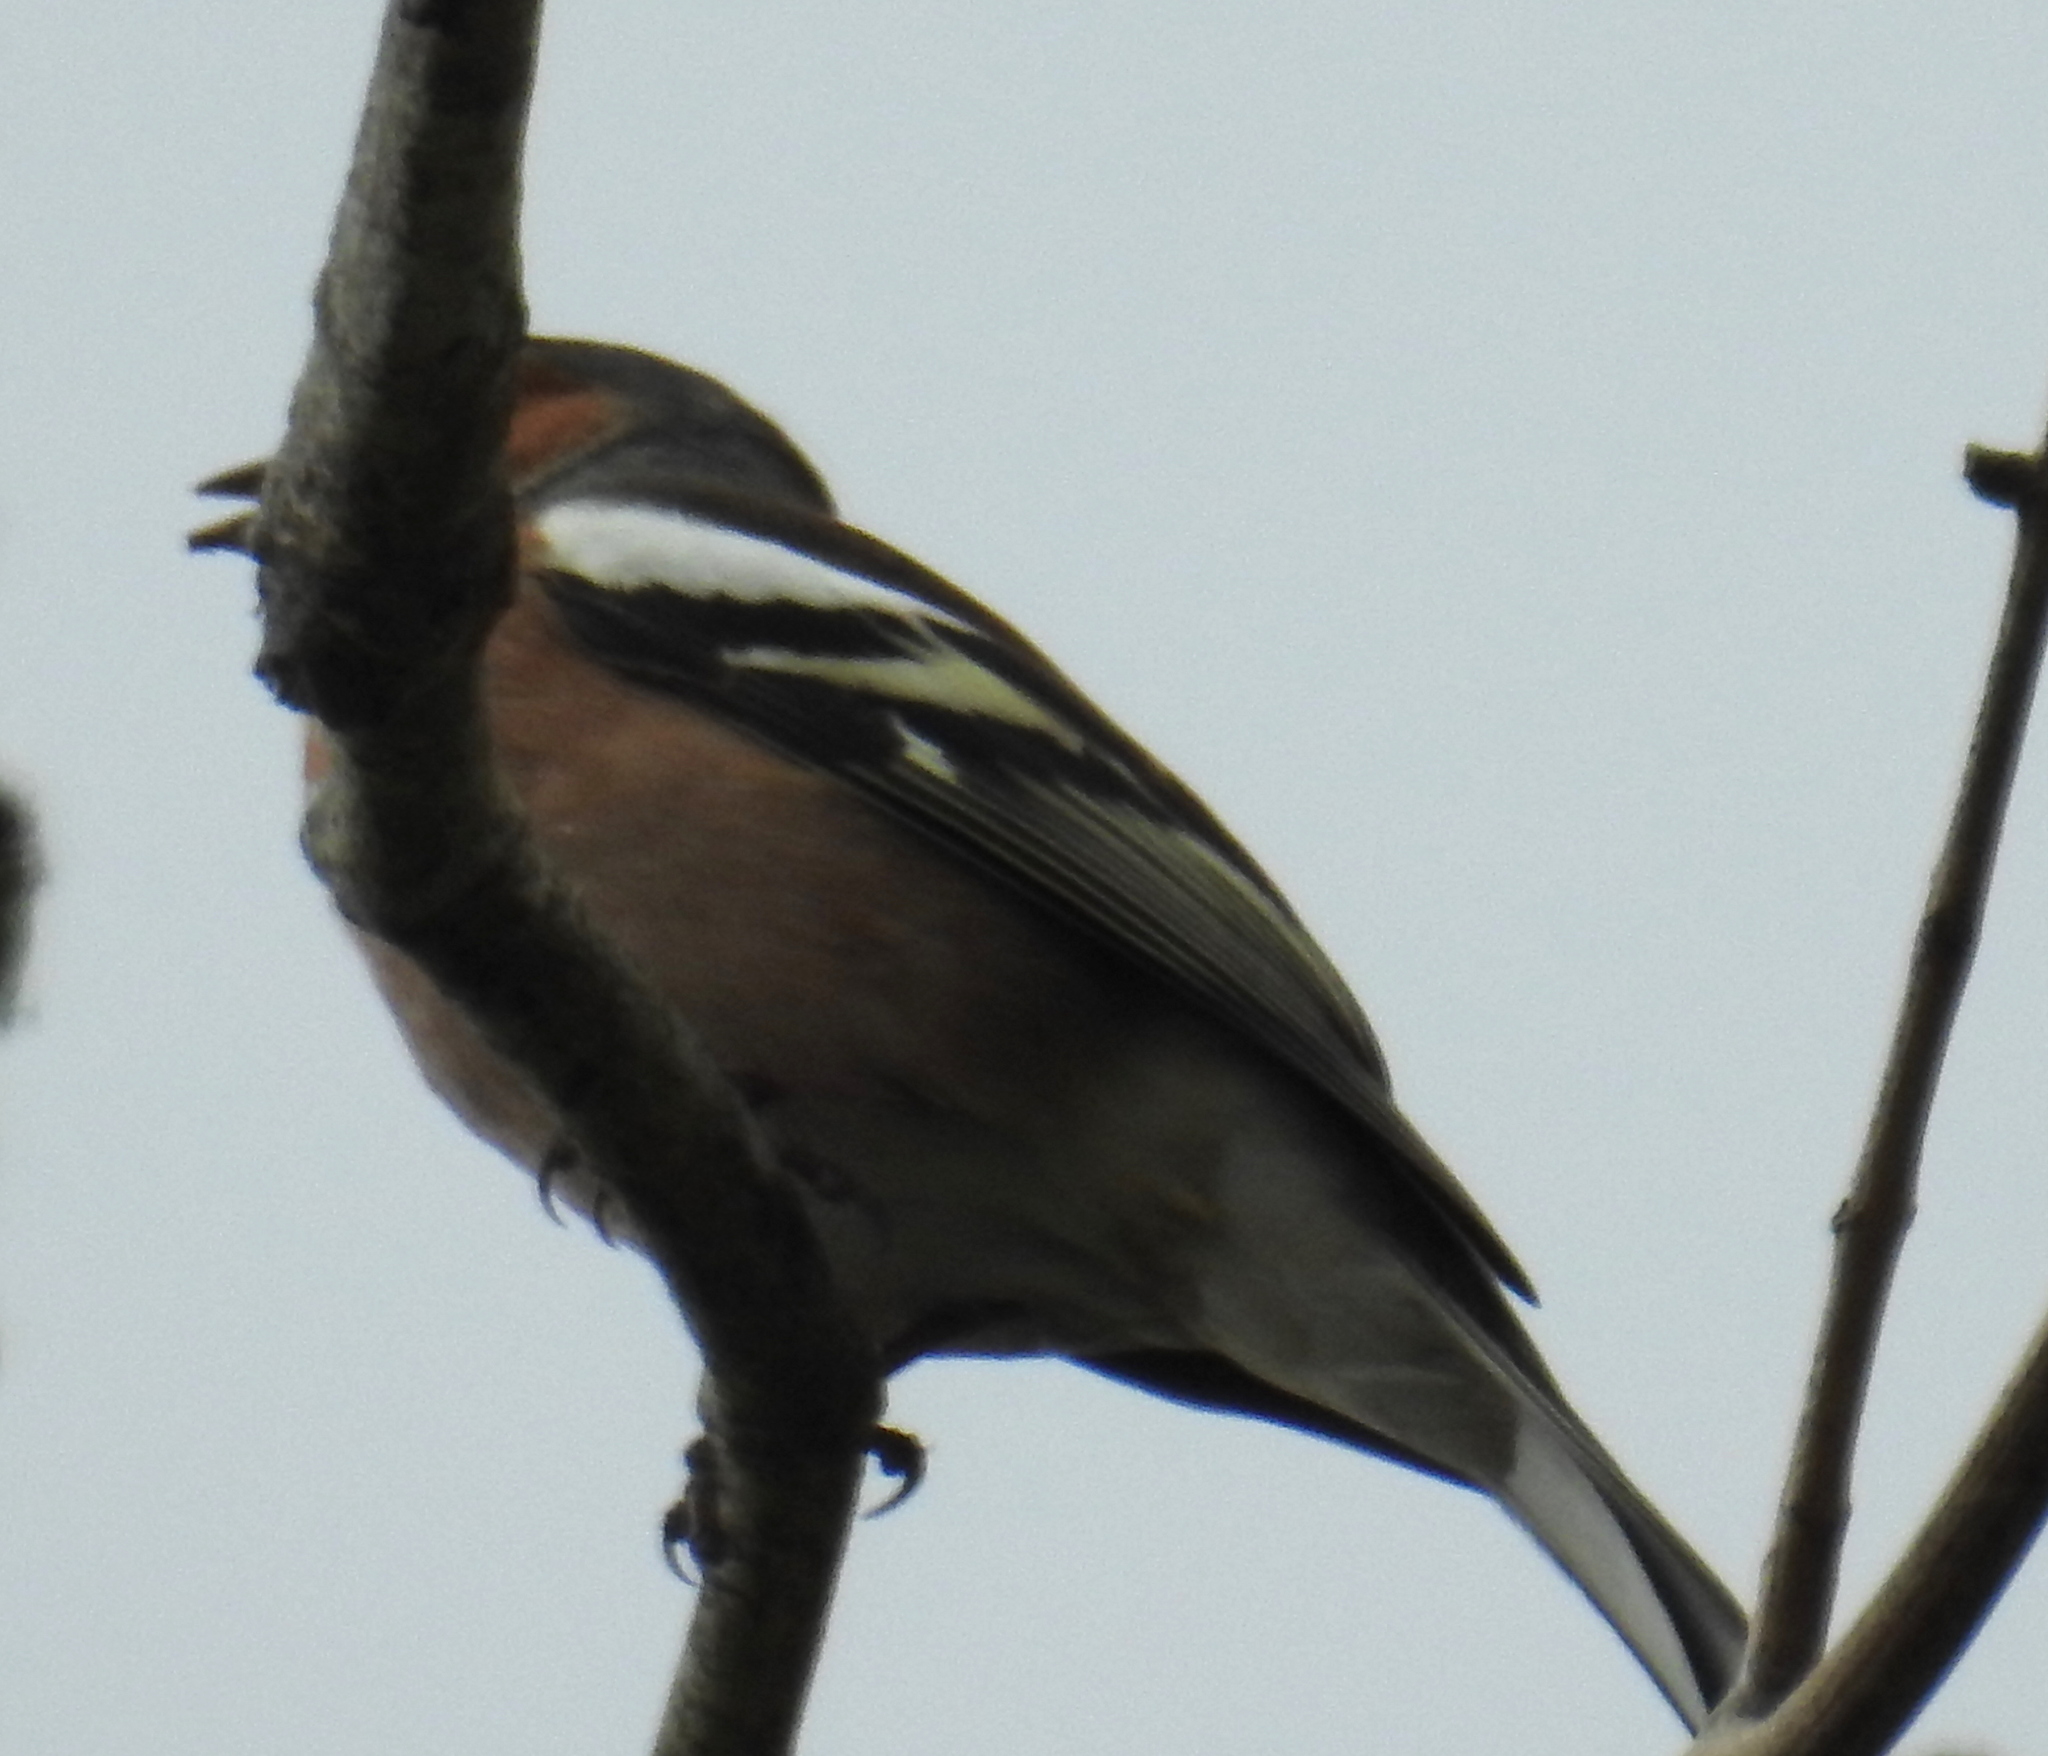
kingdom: Animalia
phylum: Chordata
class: Aves
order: Passeriformes
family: Fringillidae
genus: Fringilla
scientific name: Fringilla coelebs
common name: Common chaffinch
